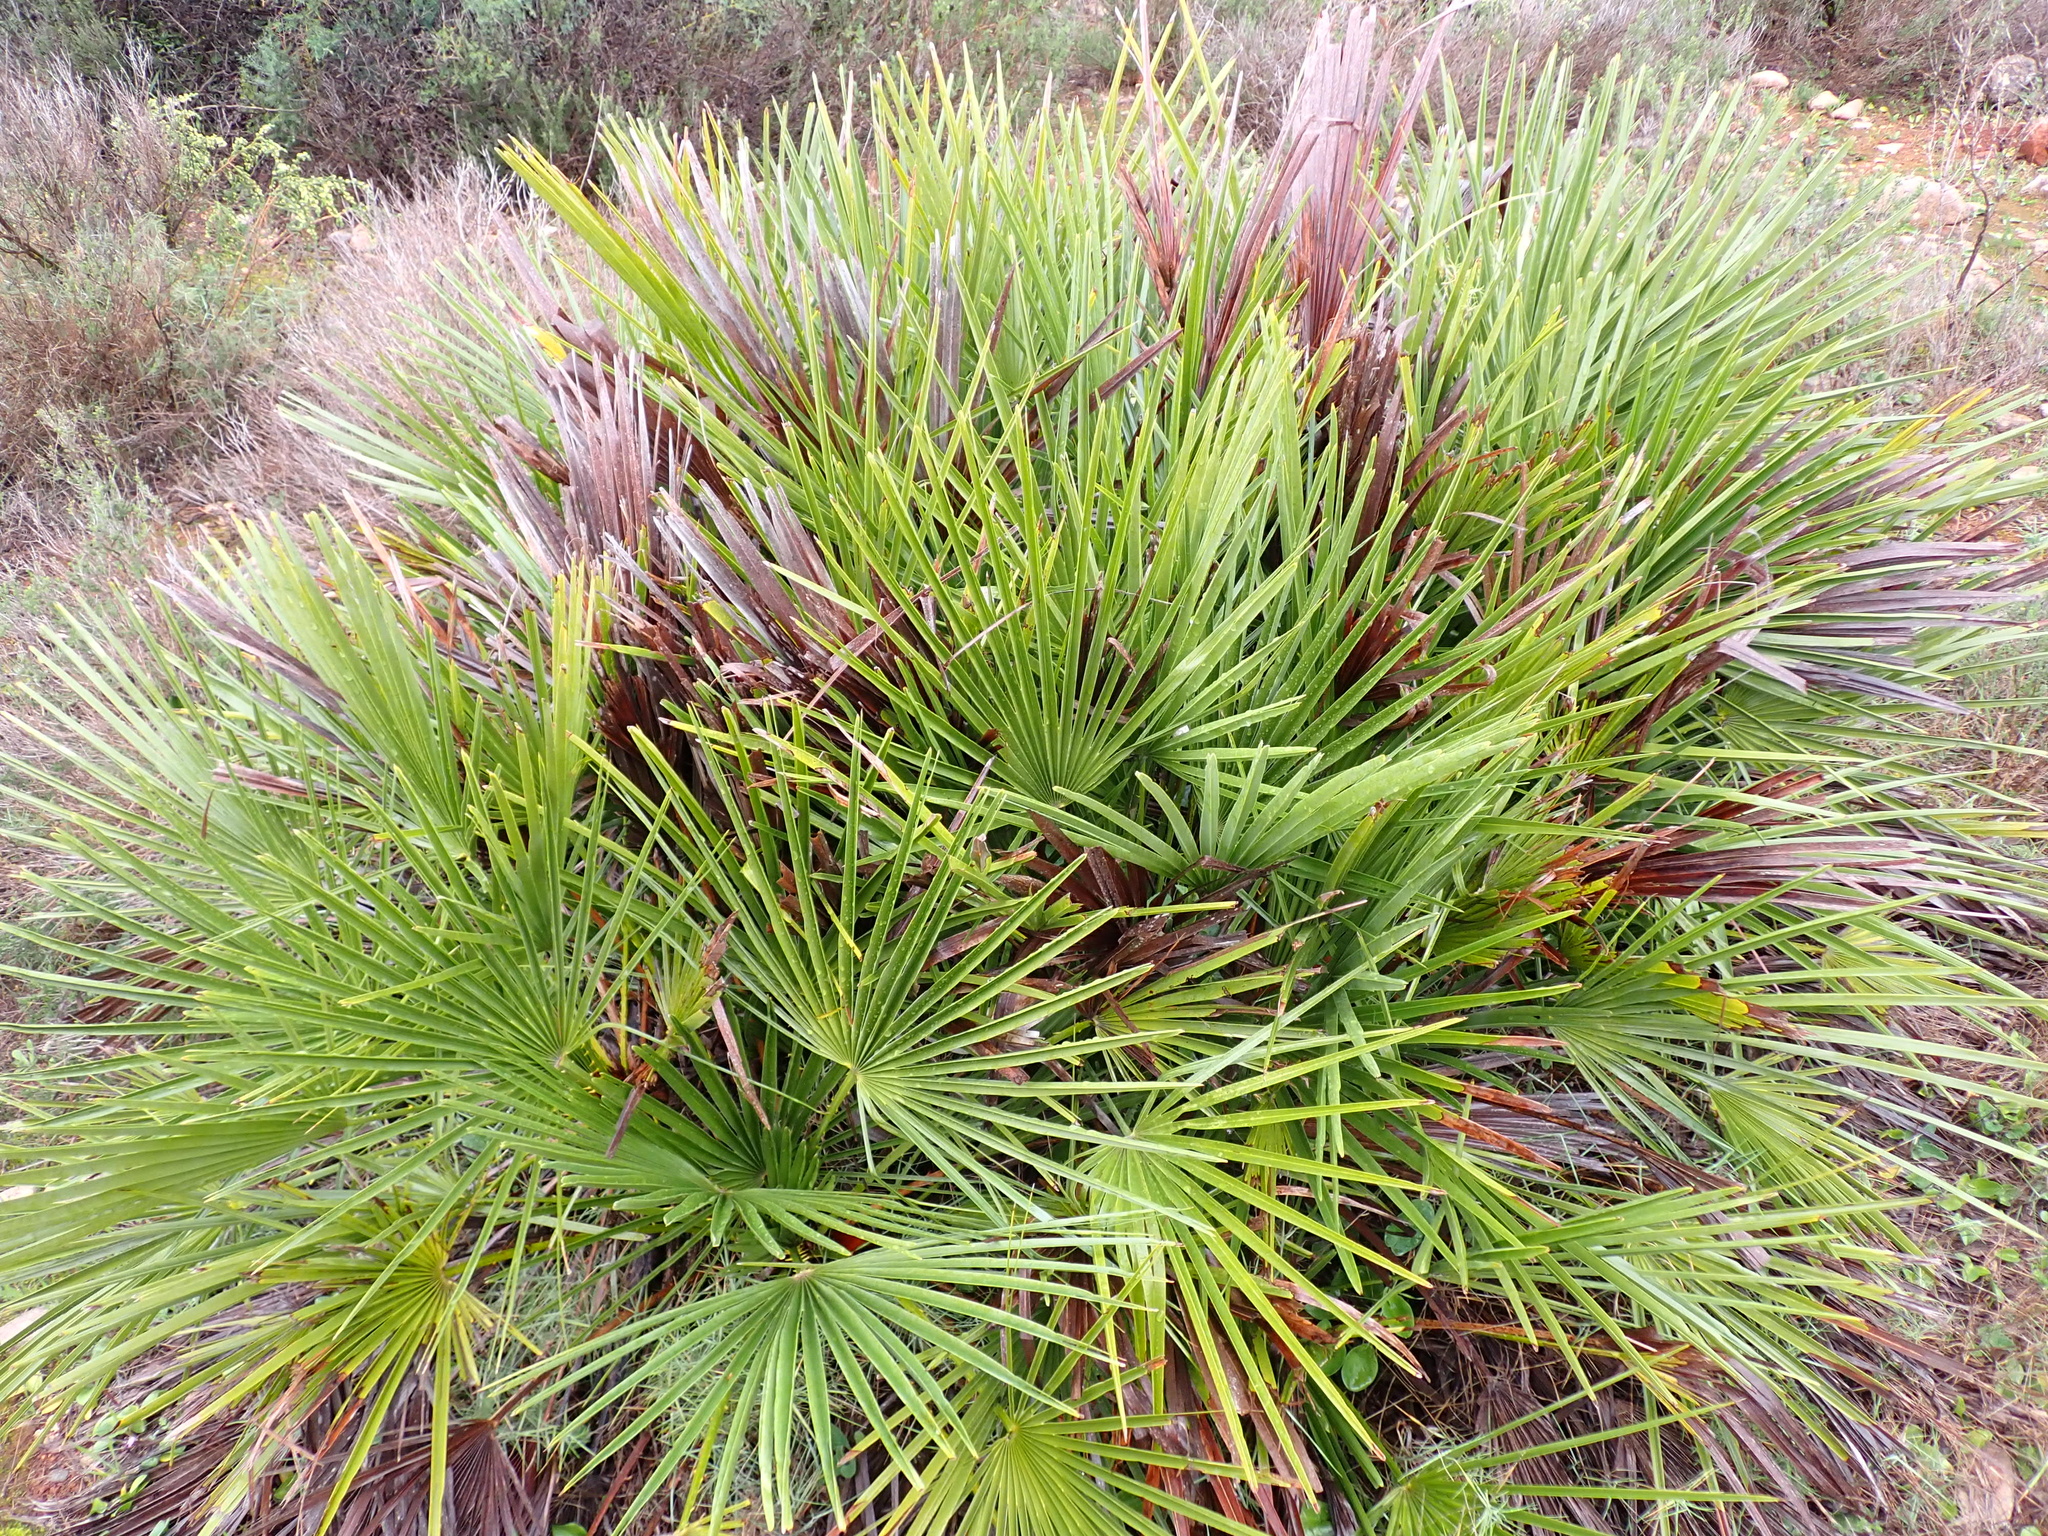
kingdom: Plantae
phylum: Tracheophyta
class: Liliopsida
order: Arecales
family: Arecaceae
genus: Chamaerops
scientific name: Chamaerops humilis
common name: Dwarf fan palm
